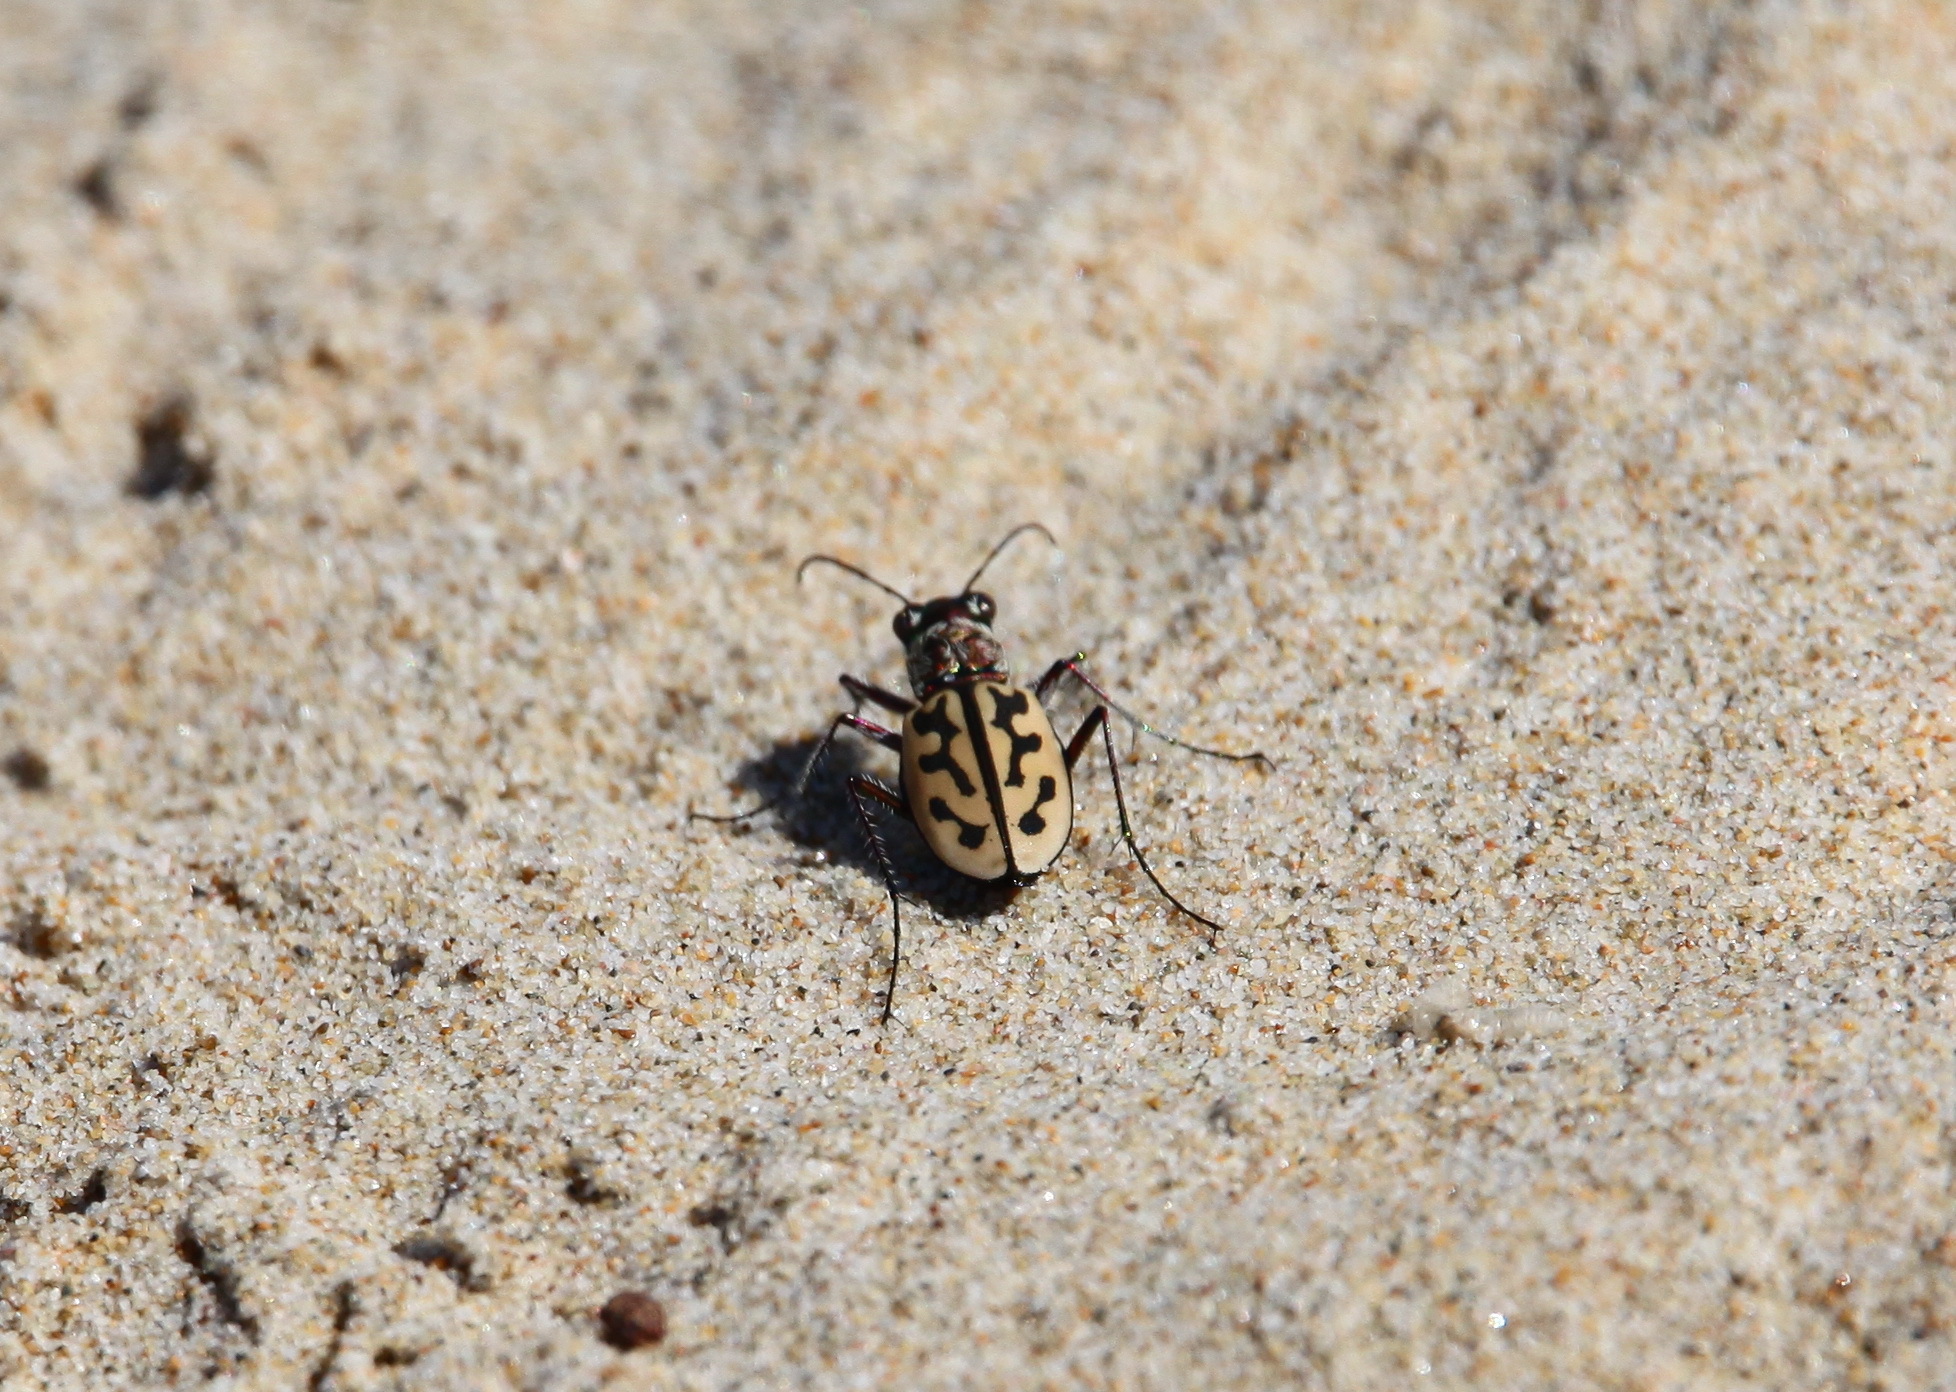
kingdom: Animalia
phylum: Arthropoda
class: Insecta
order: Coleoptera
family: Carabidae
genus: Lophyra
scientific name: Lophyra differens
